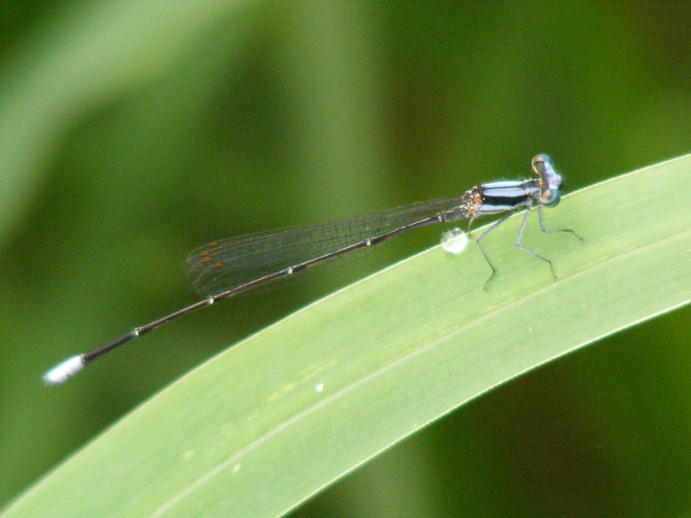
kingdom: Animalia
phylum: Arthropoda
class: Insecta
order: Odonata
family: Platycnemididae
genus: Elattoneura
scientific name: Elattoneura glauca
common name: Common threadtail
